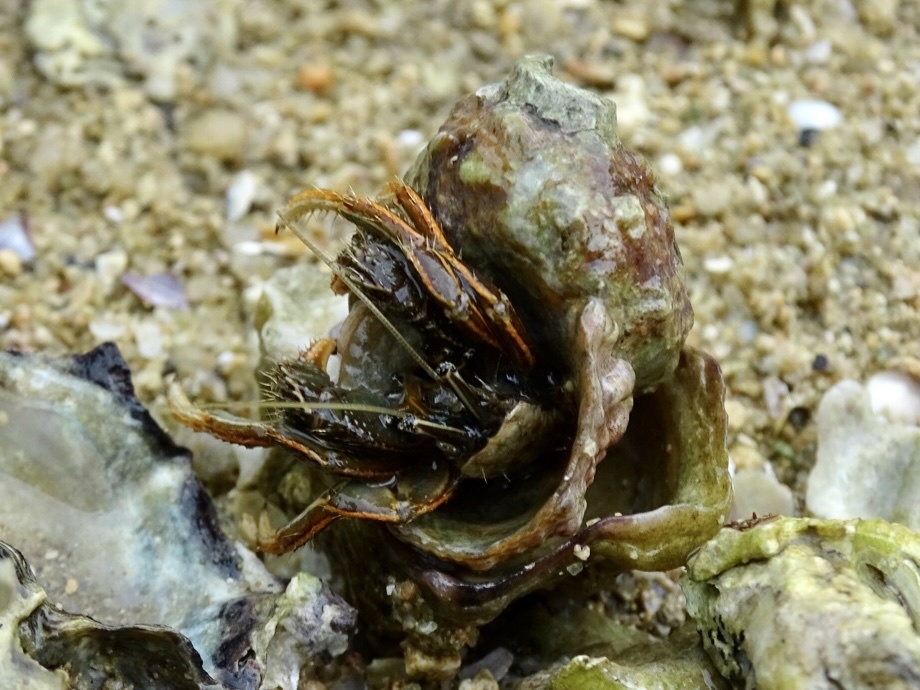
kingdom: Animalia
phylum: Arthropoda
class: Malacostraca
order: Decapoda
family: Diogenidae
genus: Clibanarius
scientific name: Clibanarius infraspinatus
